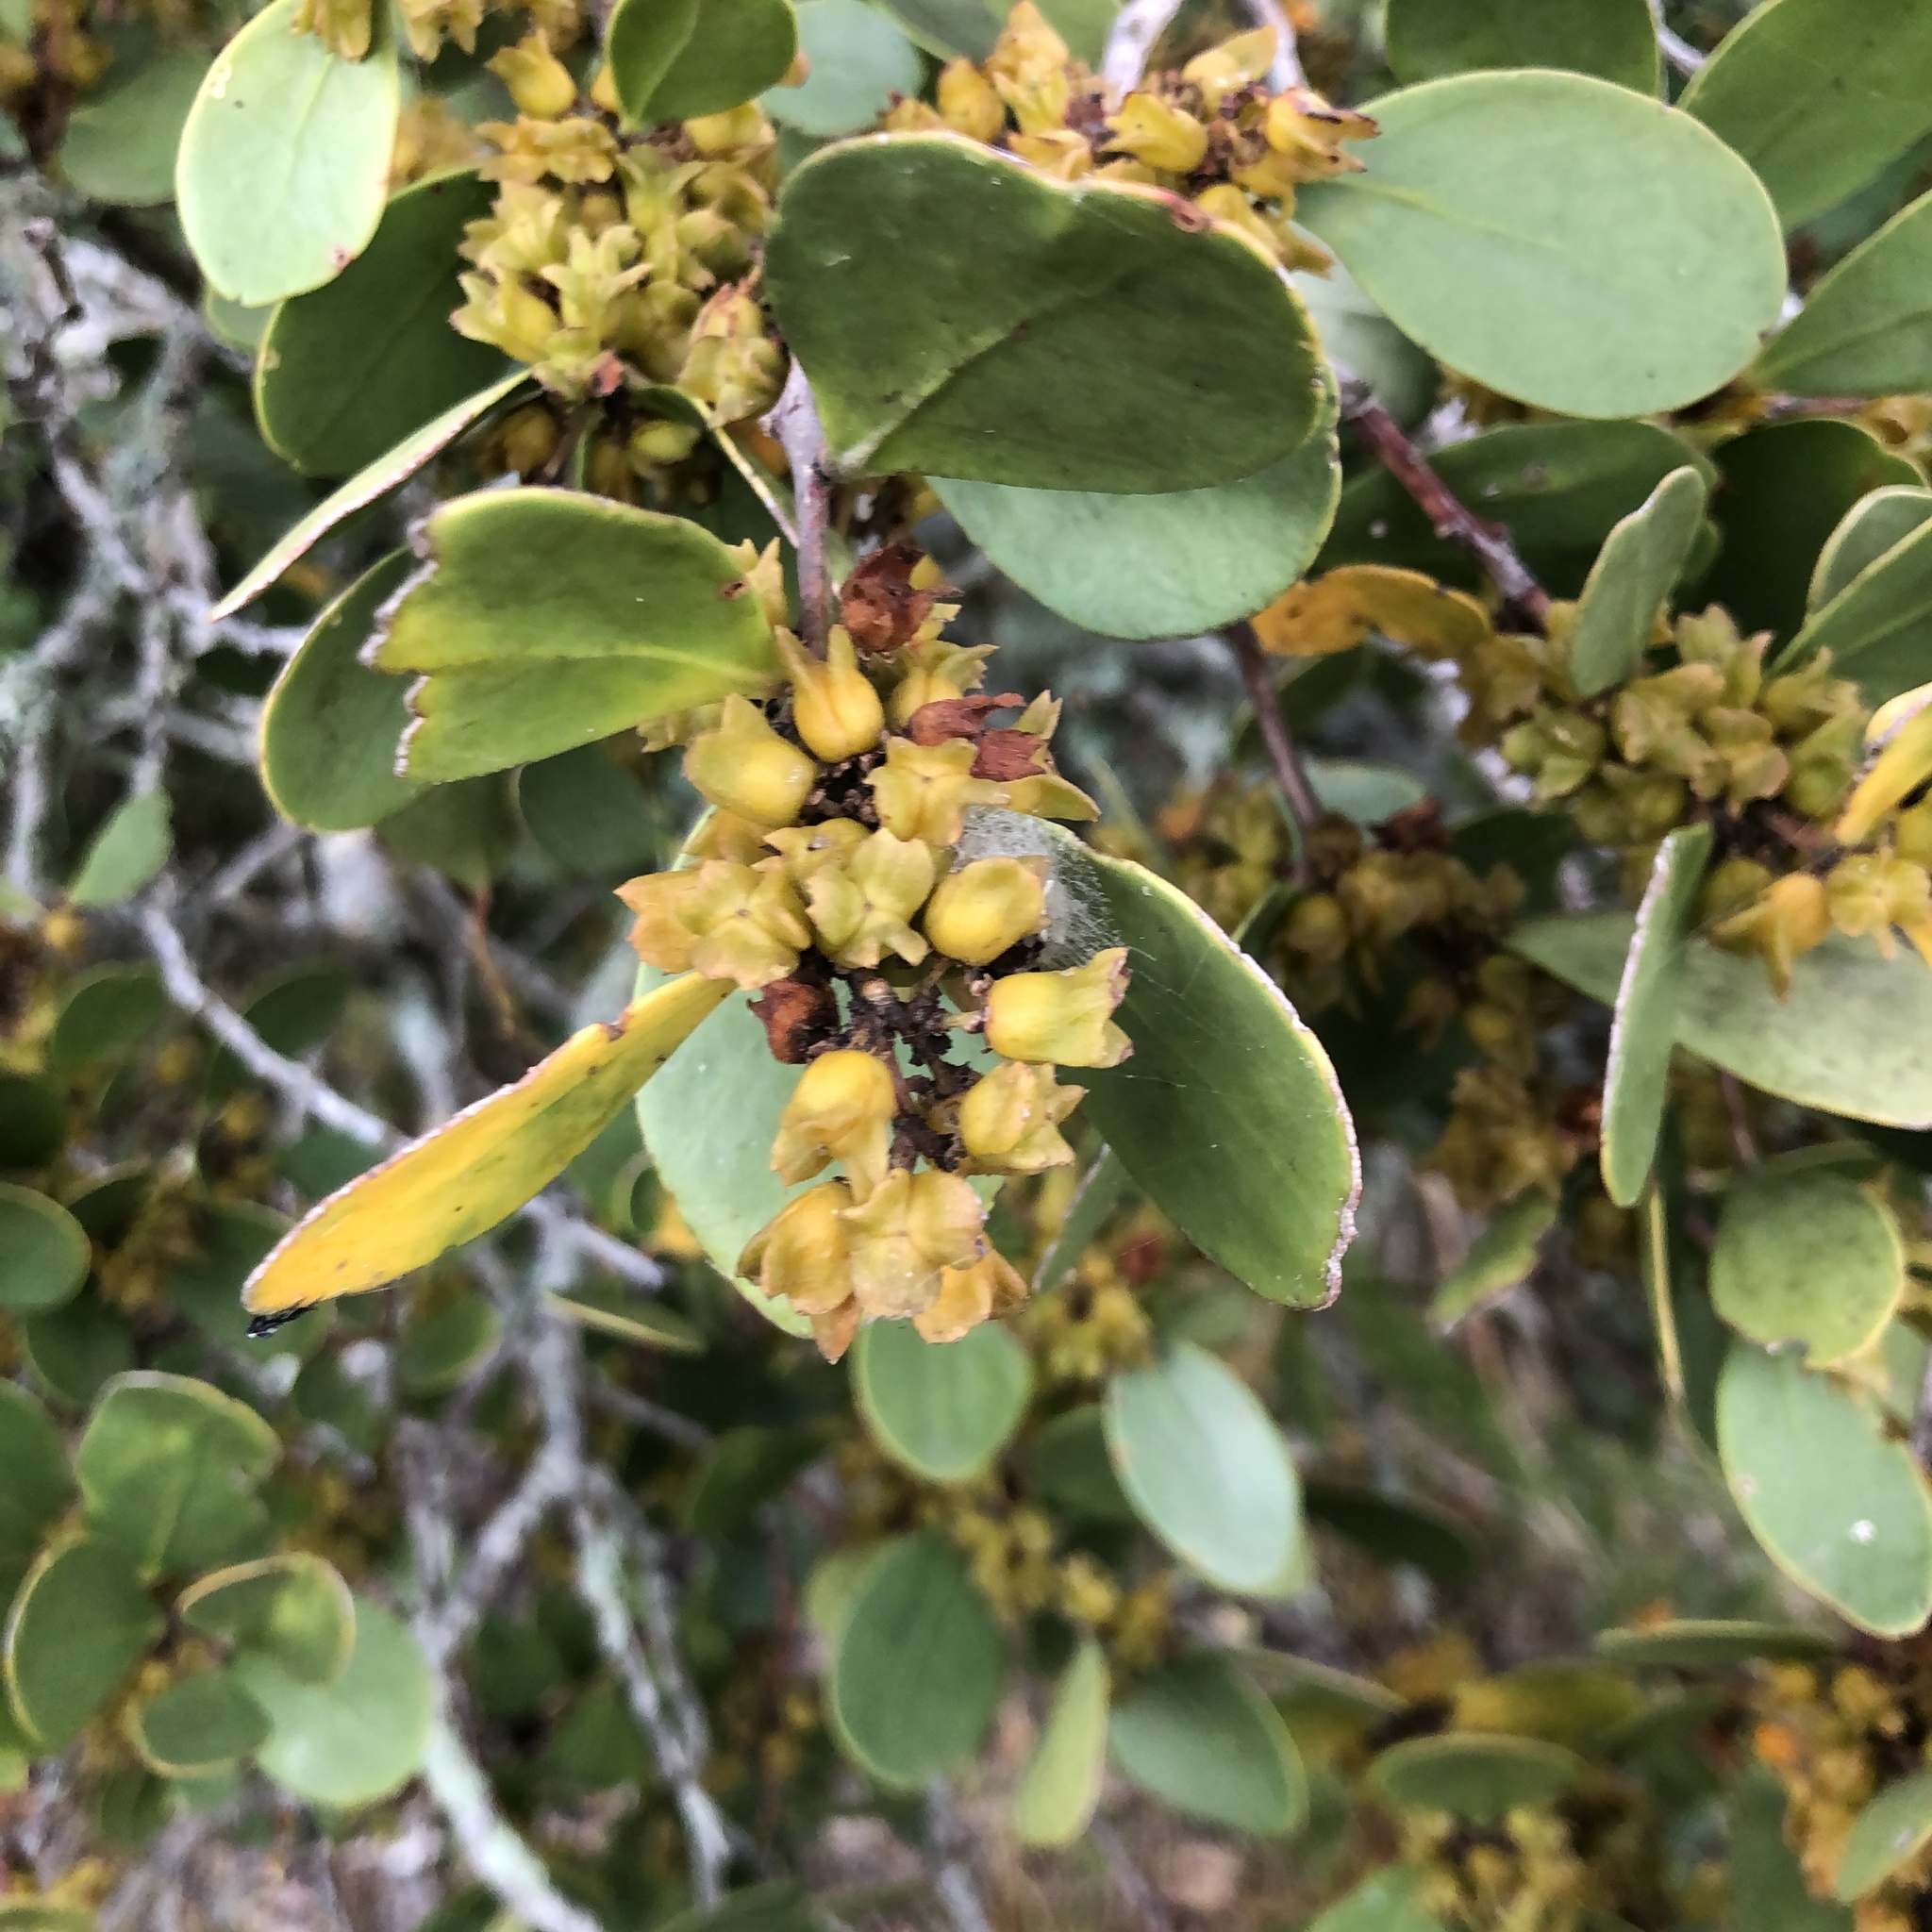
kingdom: Plantae
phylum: Tracheophyta
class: Magnoliopsida
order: Celastrales
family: Celastraceae
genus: Pterocelastrus
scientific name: Pterocelastrus tricuspidatus
